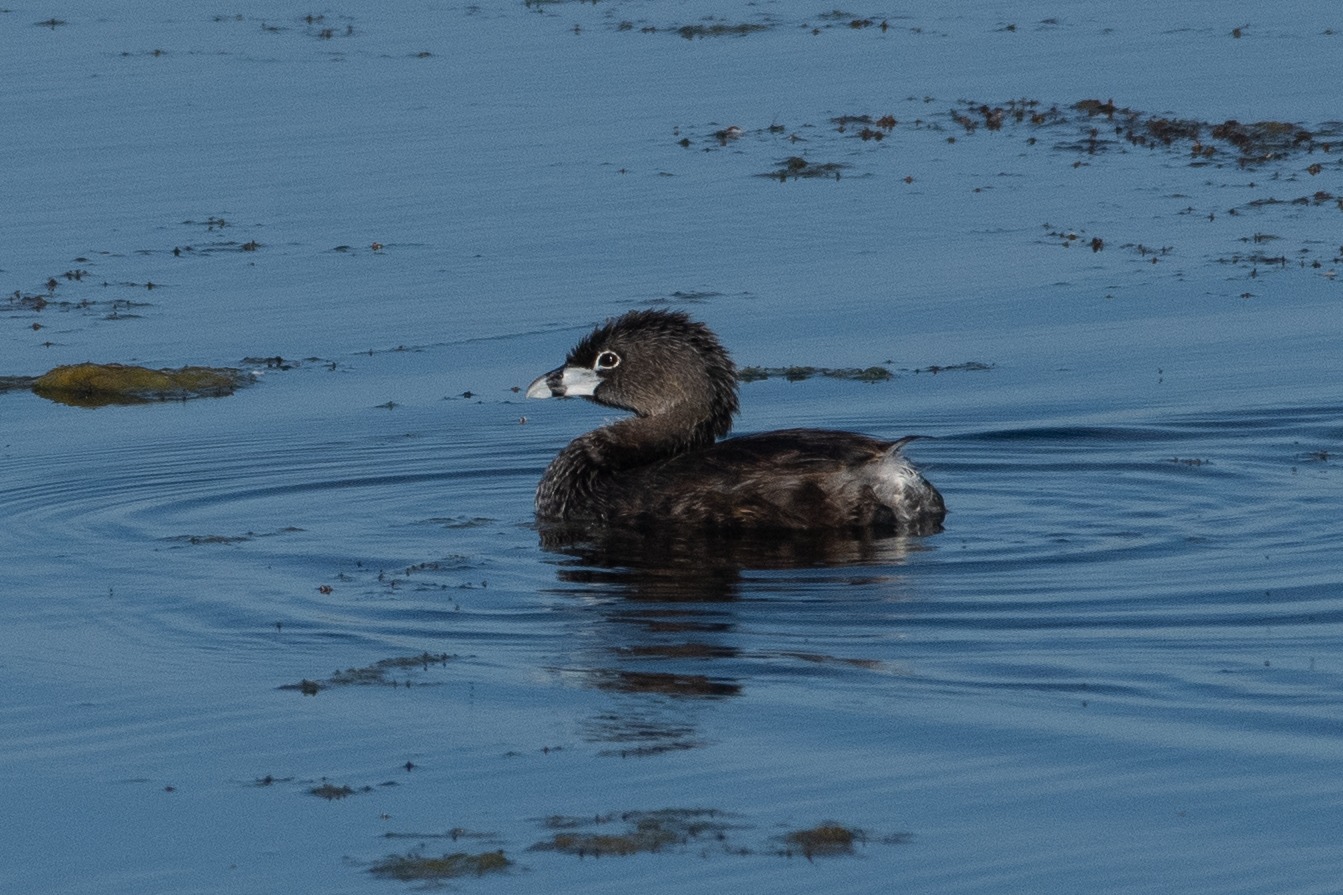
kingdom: Animalia
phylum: Chordata
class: Aves
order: Podicipediformes
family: Podicipedidae
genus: Podilymbus
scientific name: Podilymbus podiceps
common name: Pied-billed grebe
